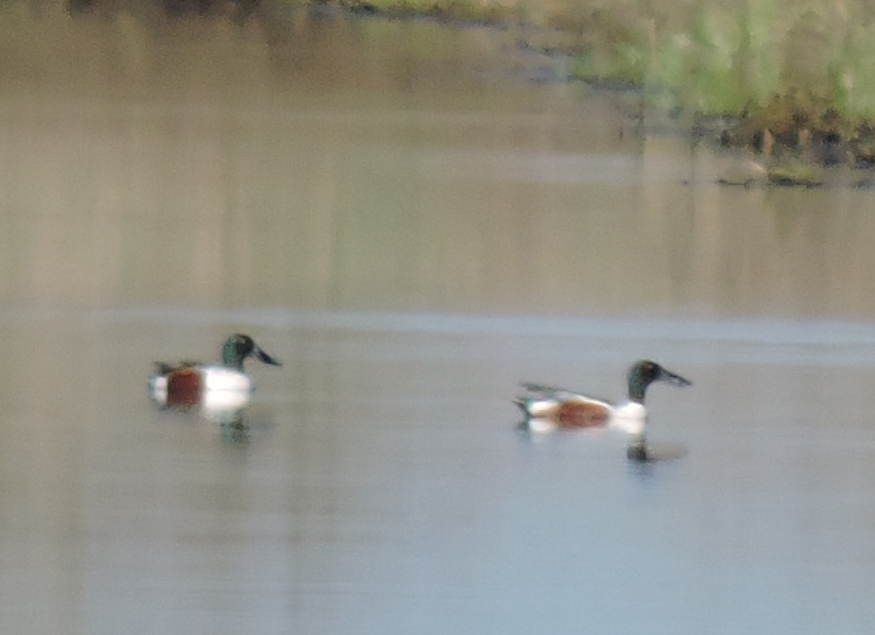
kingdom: Animalia
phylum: Chordata
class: Aves
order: Anseriformes
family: Anatidae
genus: Spatula
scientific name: Spatula clypeata
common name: Northern shoveler
